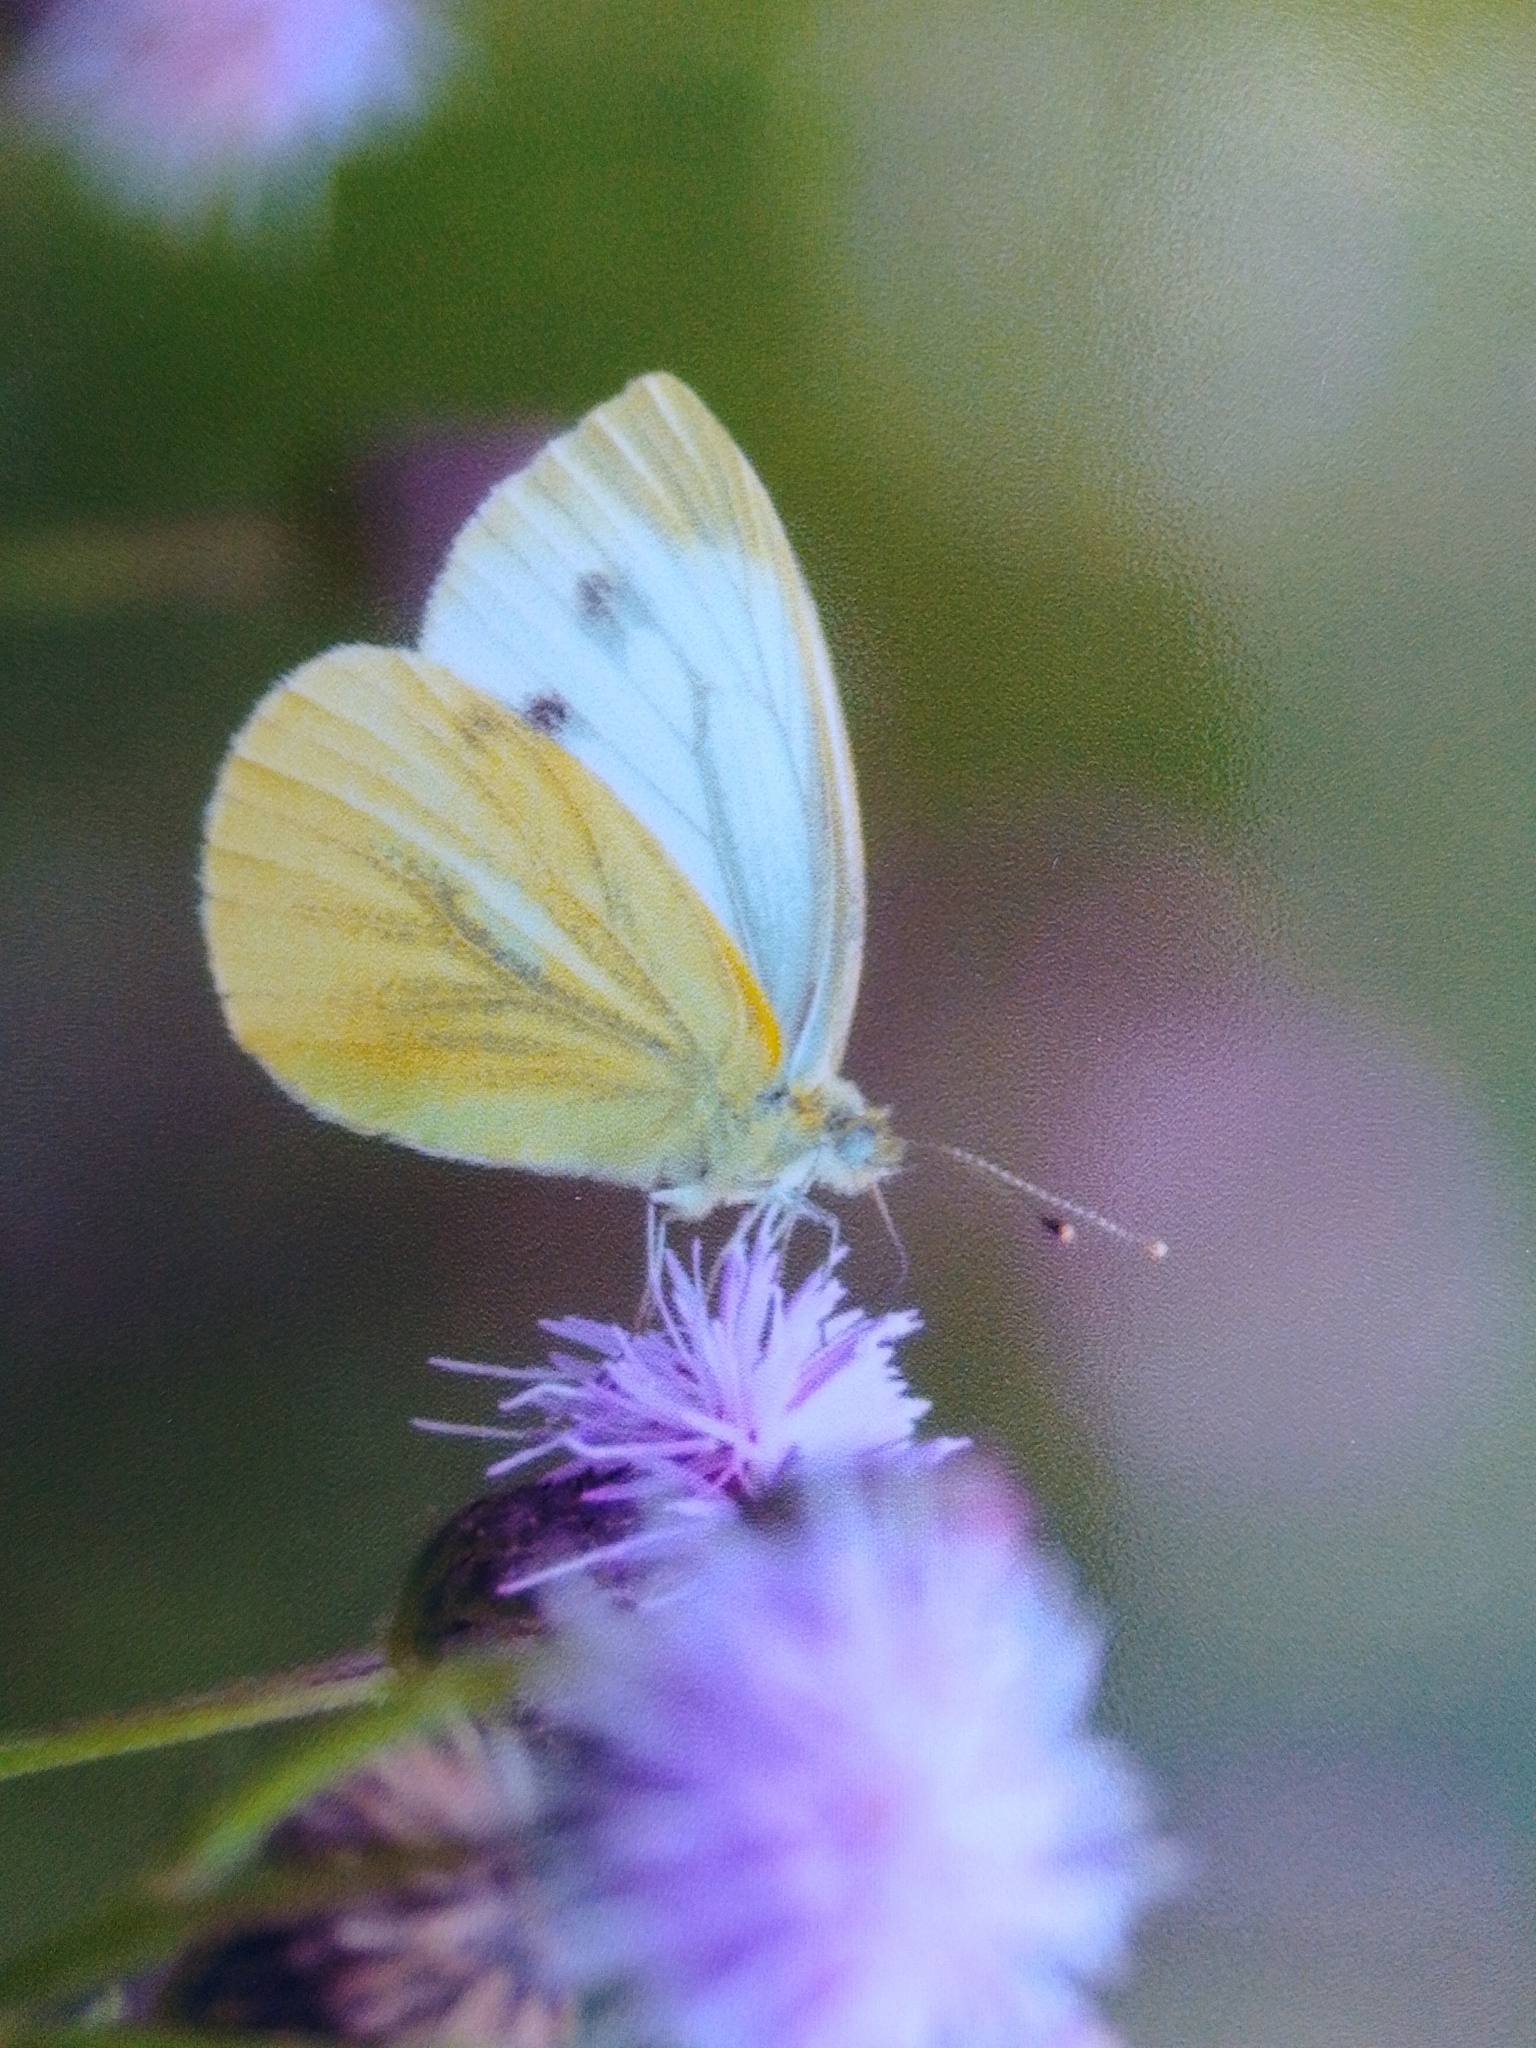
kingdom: Animalia
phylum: Arthropoda
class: Insecta
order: Lepidoptera
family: Pieridae
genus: Pieris
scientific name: Pieris napi
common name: Green-veined white
